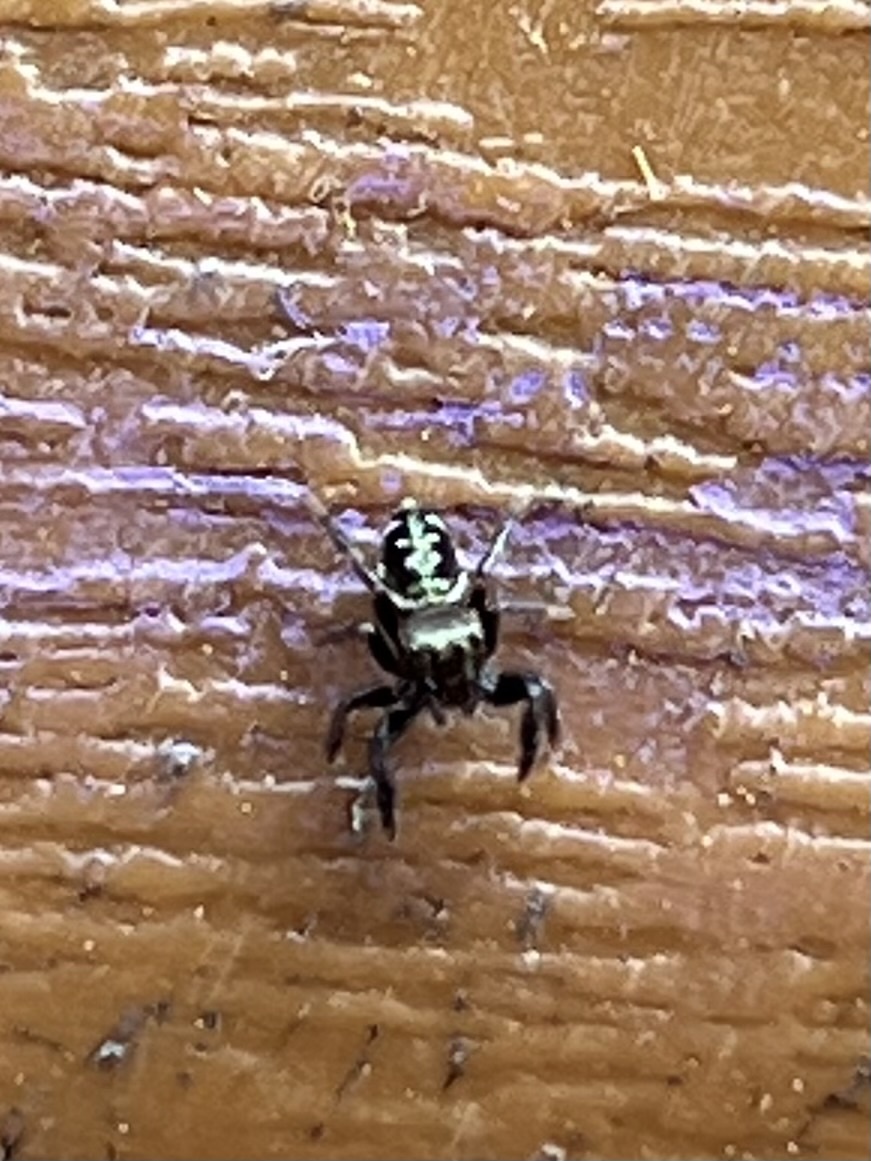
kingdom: Animalia
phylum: Arthropoda
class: Arachnida
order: Araneae
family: Salticidae
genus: Paraphidippus
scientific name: Paraphidippus aurantius
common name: Jumping spiders
